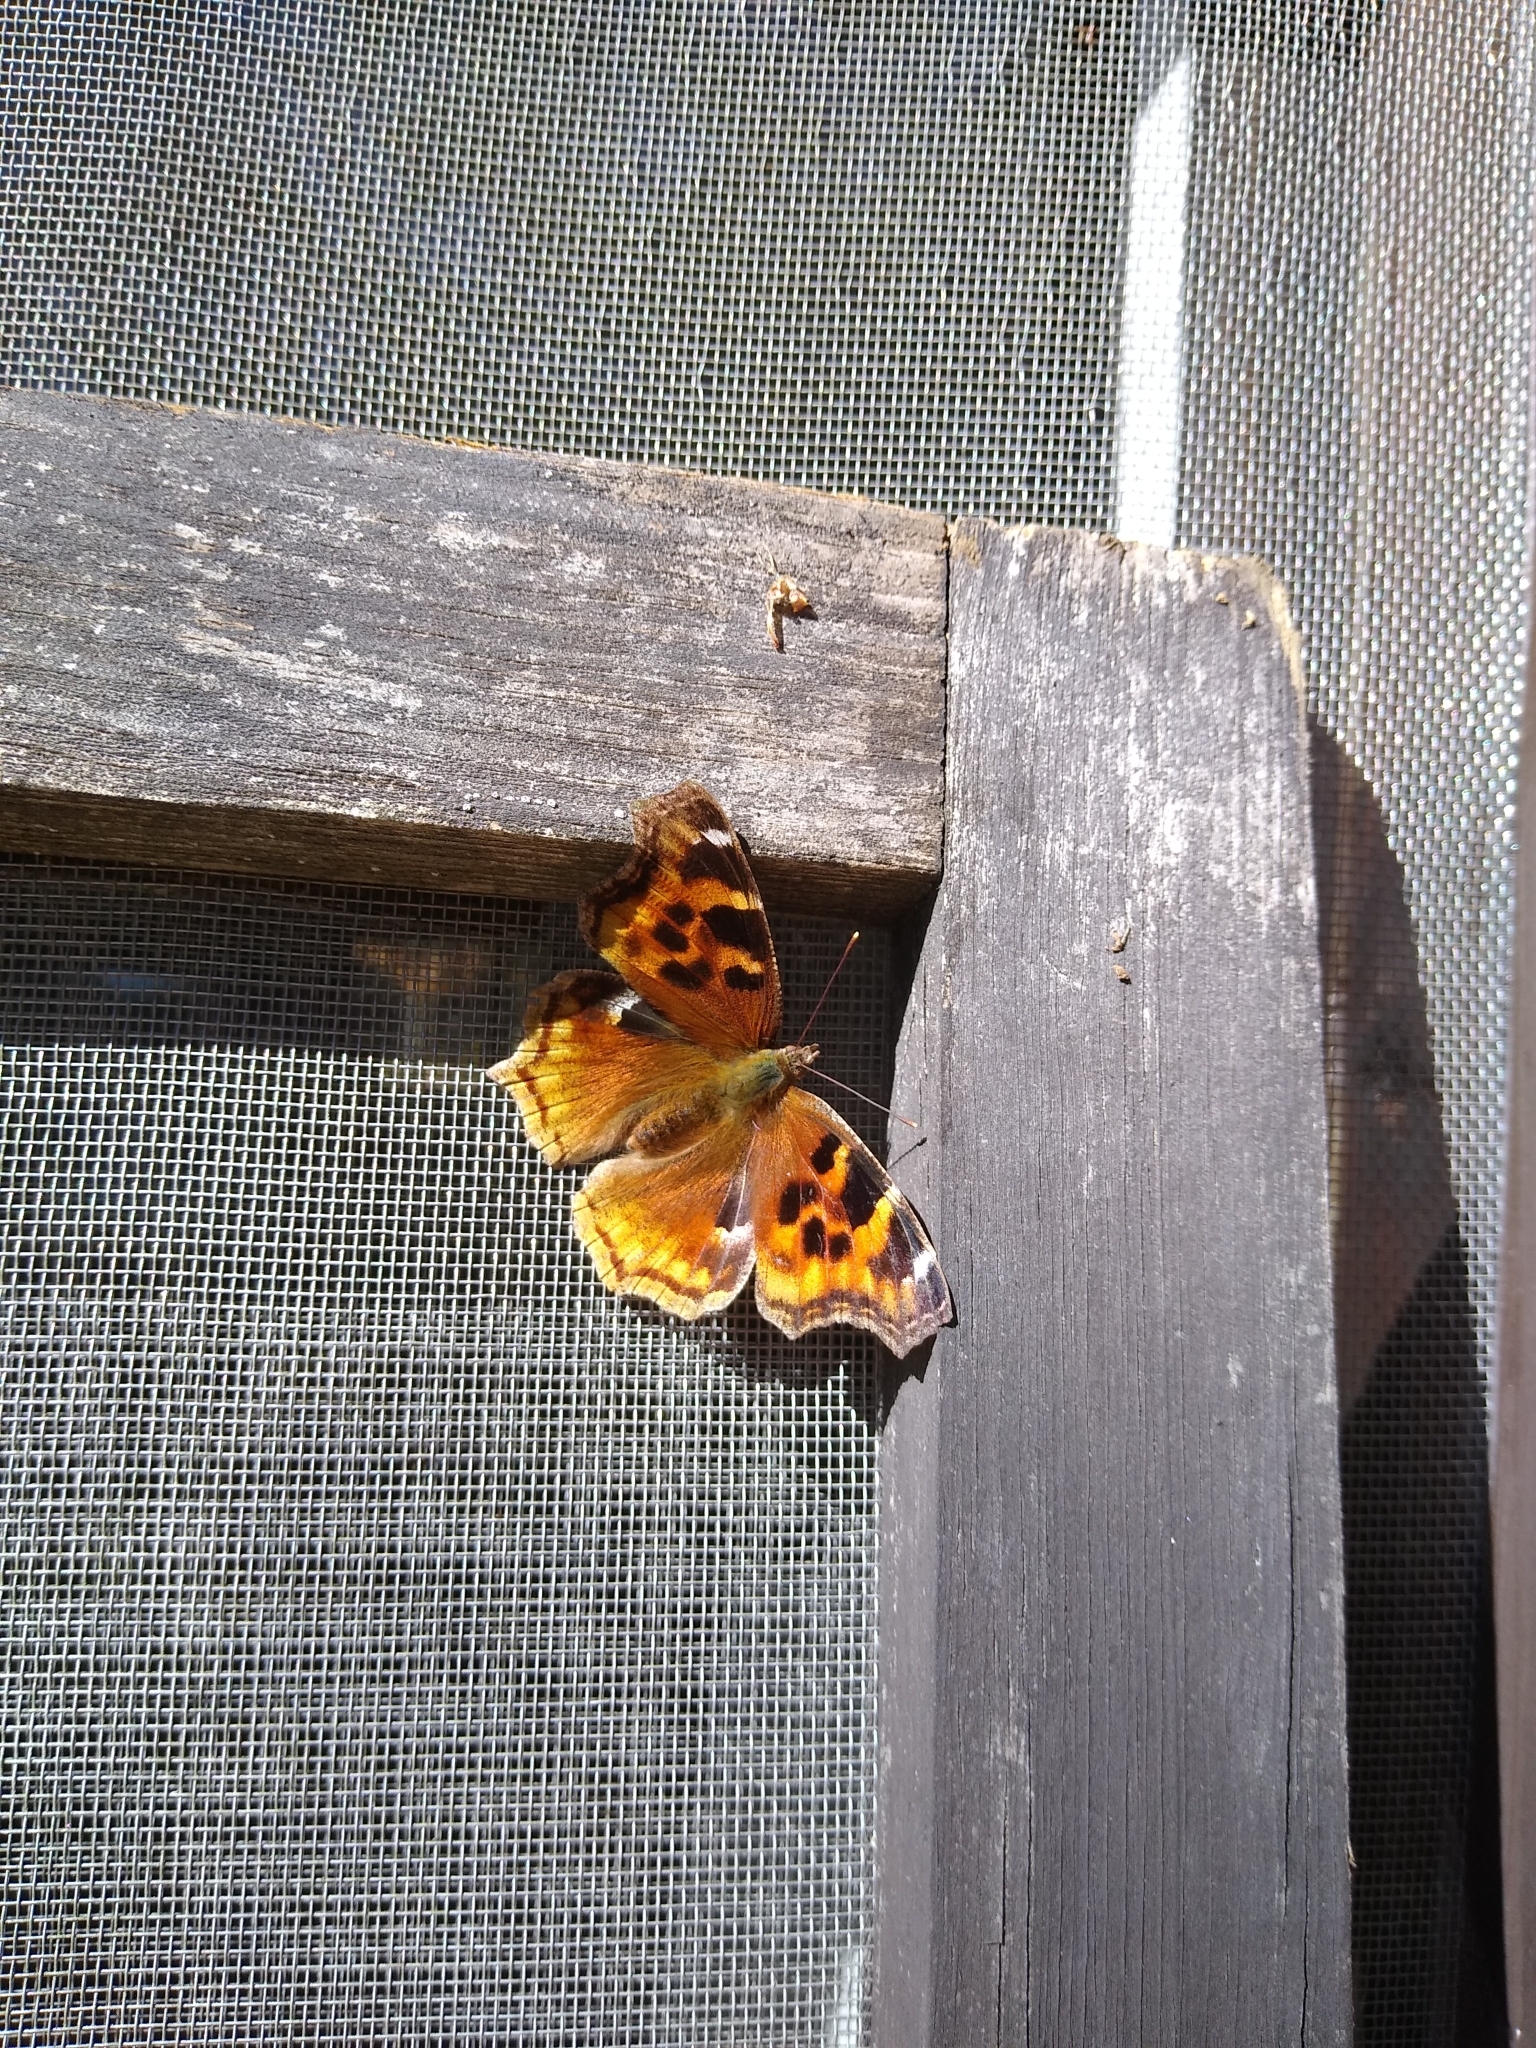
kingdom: Animalia
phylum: Arthropoda
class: Insecta
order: Lepidoptera
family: Nymphalidae
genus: Polygonia
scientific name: Polygonia vaualbum
